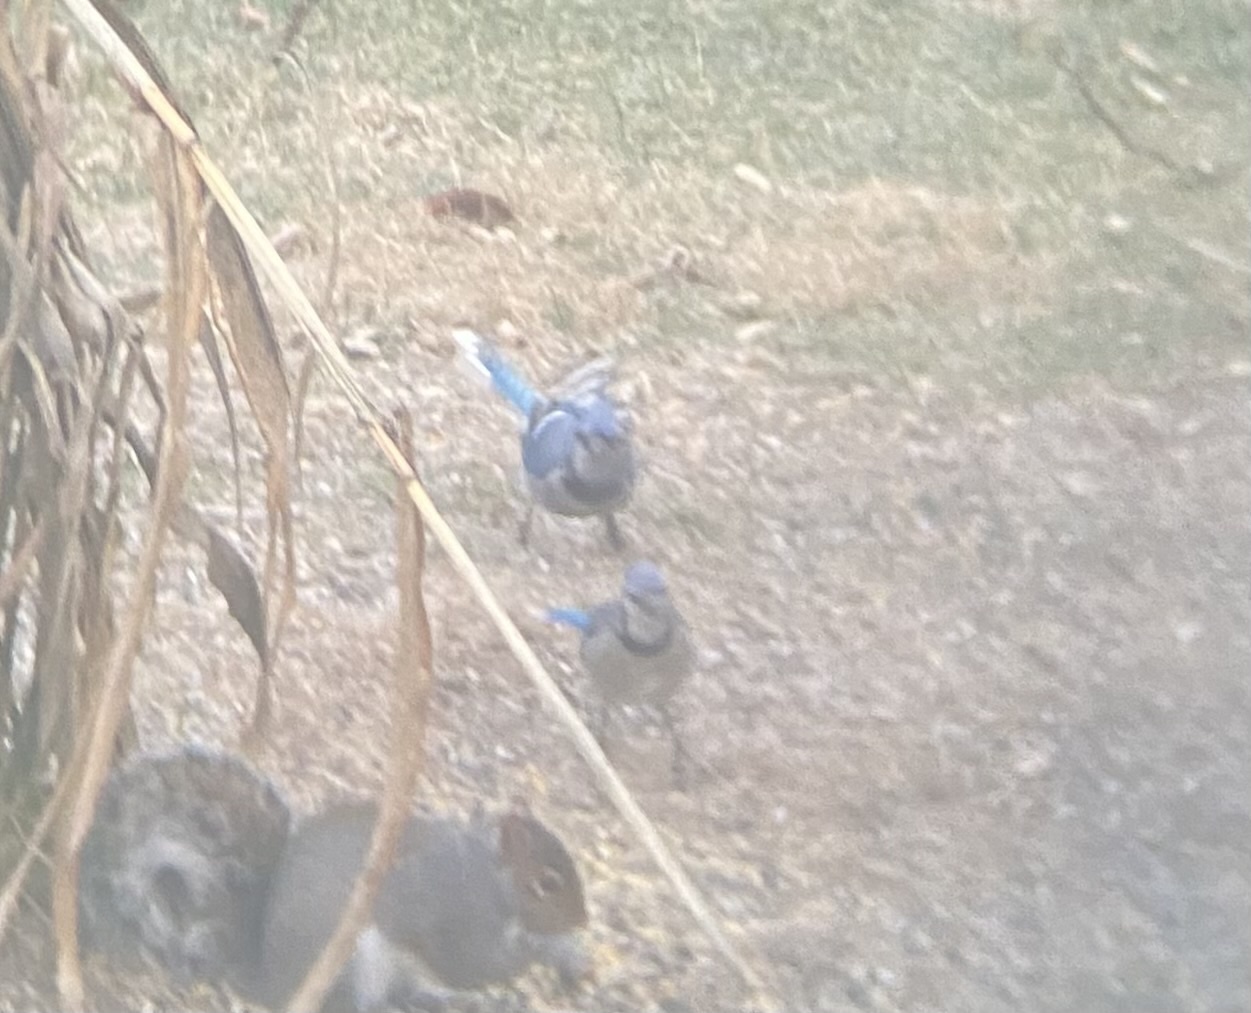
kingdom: Animalia
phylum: Chordata
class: Aves
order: Passeriformes
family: Corvidae
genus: Cyanocitta
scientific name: Cyanocitta cristata
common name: Blue jay
